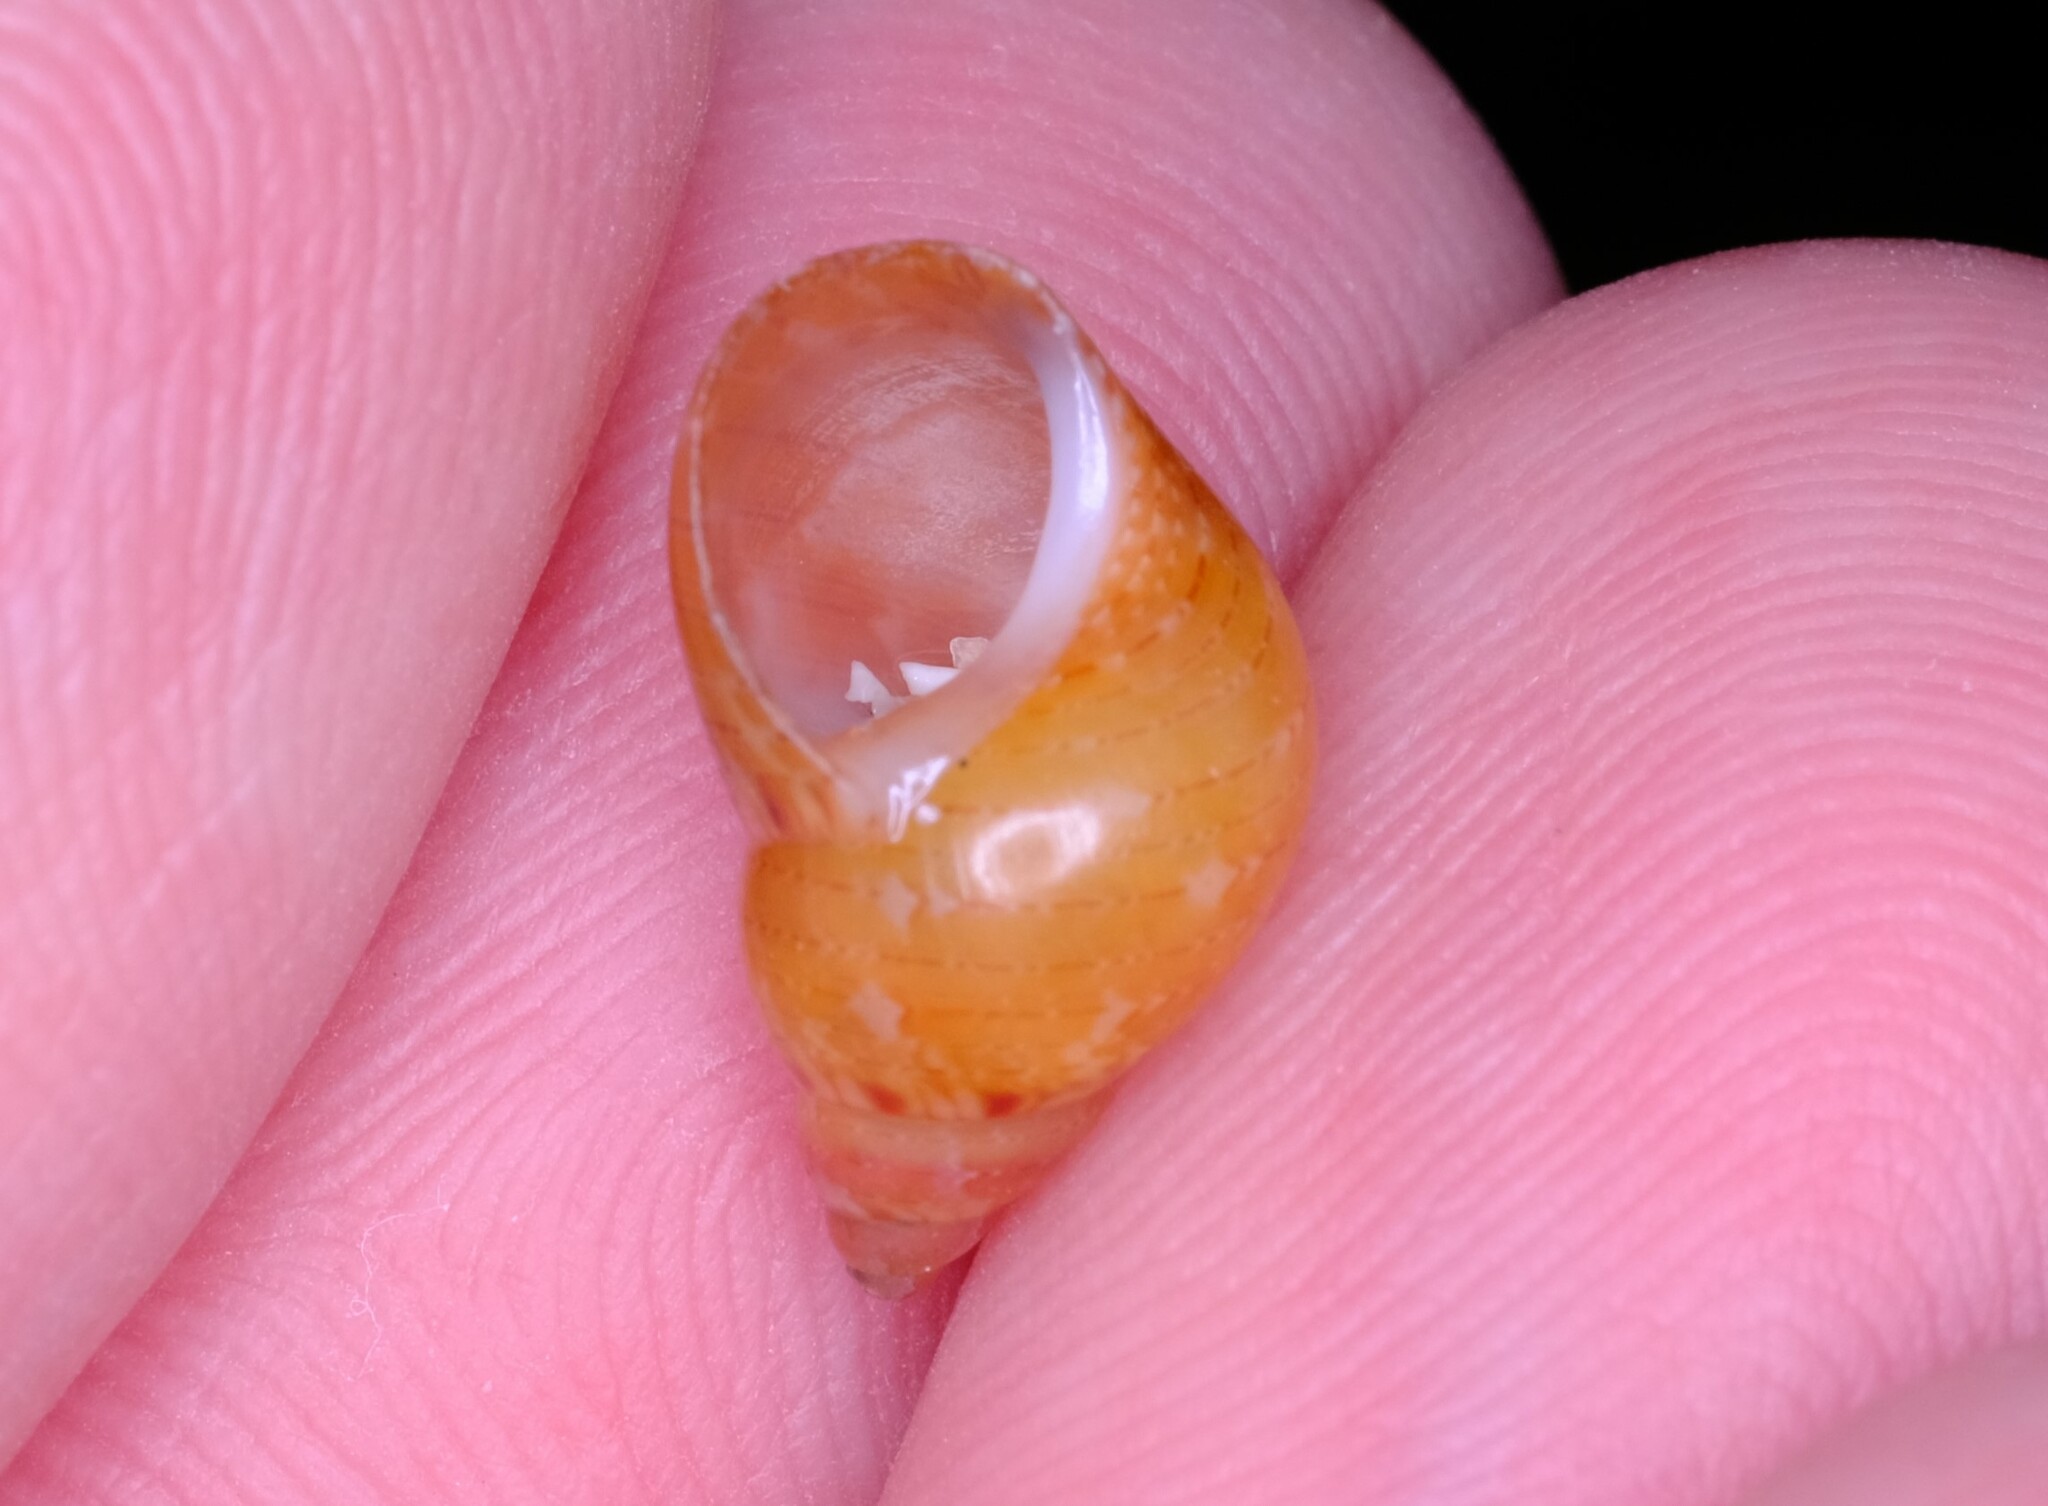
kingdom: Animalia
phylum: Mollusca
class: Gastropoda
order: Trochida
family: Phasianellidae
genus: Phasianella
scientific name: Phasianella solida
